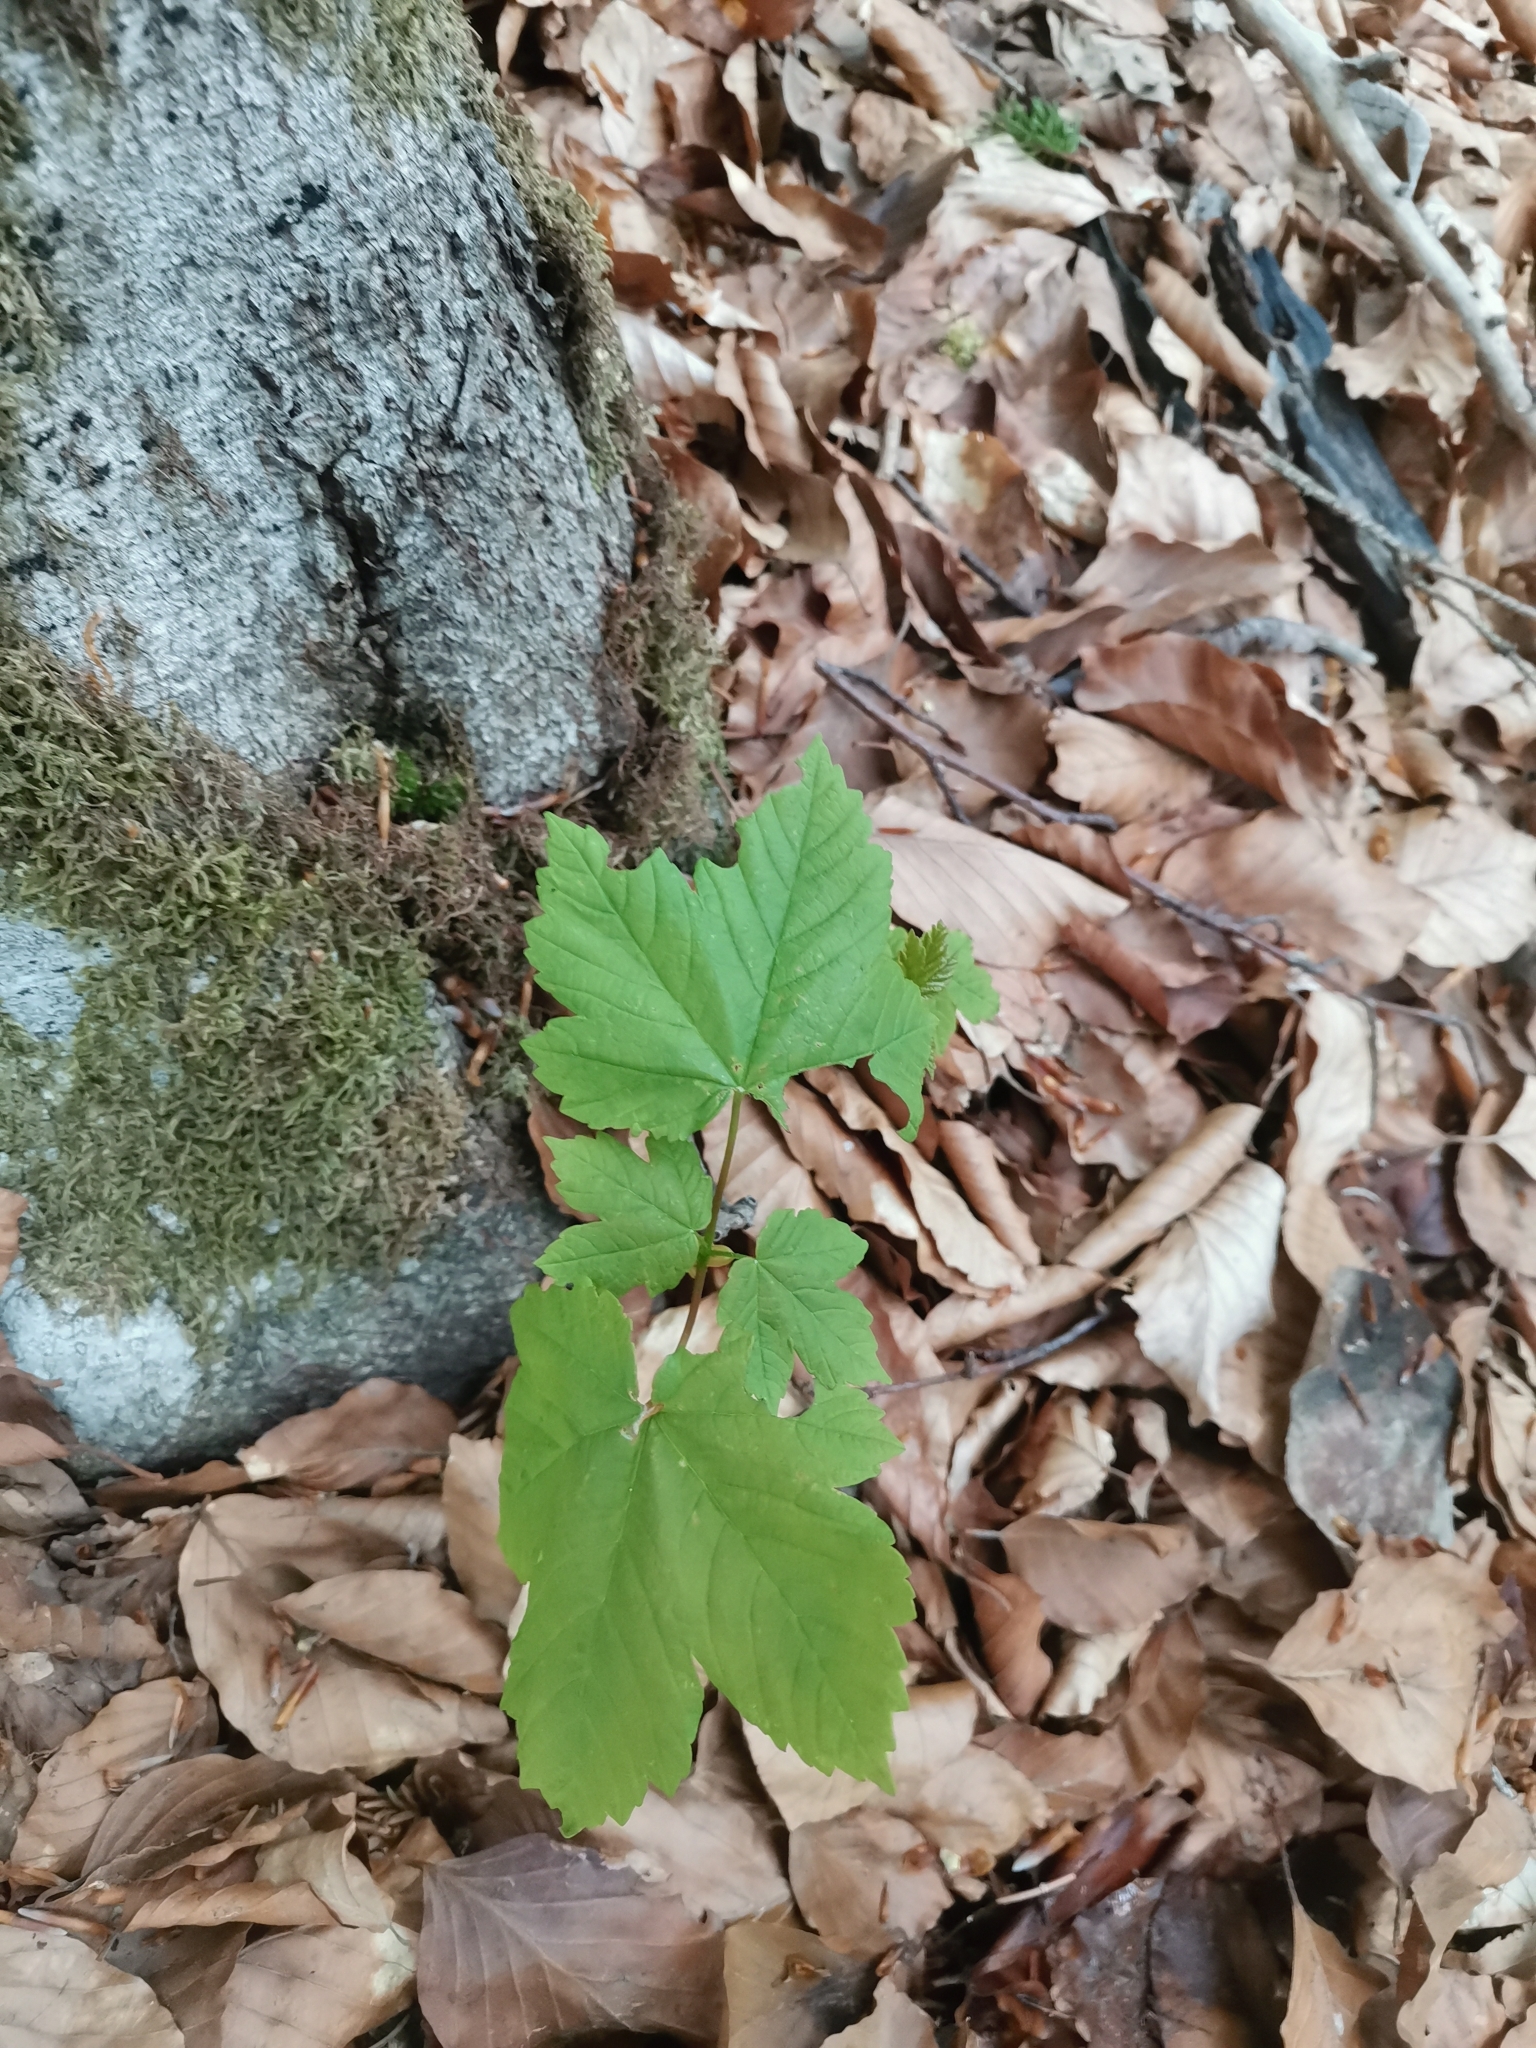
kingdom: Plantae
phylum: Tracheophyta
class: Magnoliopsida
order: Sapindales
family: Sapindaceae
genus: Acer
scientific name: Acer pseudoplatanus
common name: Sycamore
